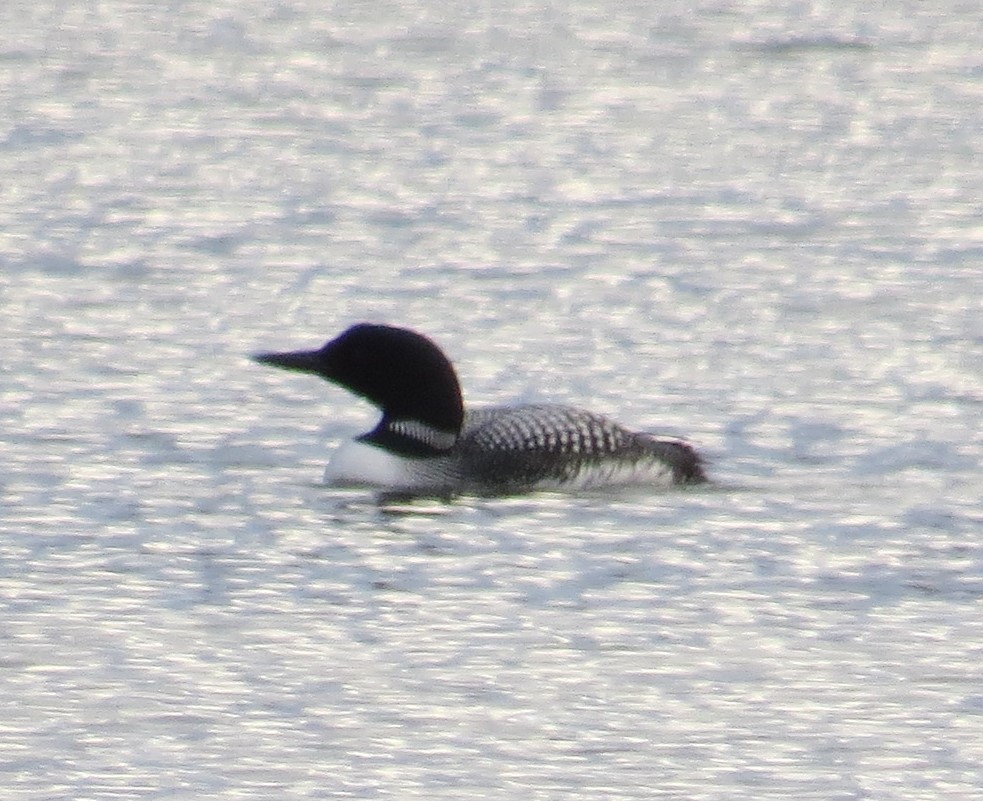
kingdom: Animalia
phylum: Chordata
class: Aves
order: Gaviiformes
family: Gaviidae
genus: Gavia
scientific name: Gavia immer
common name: Common loon
